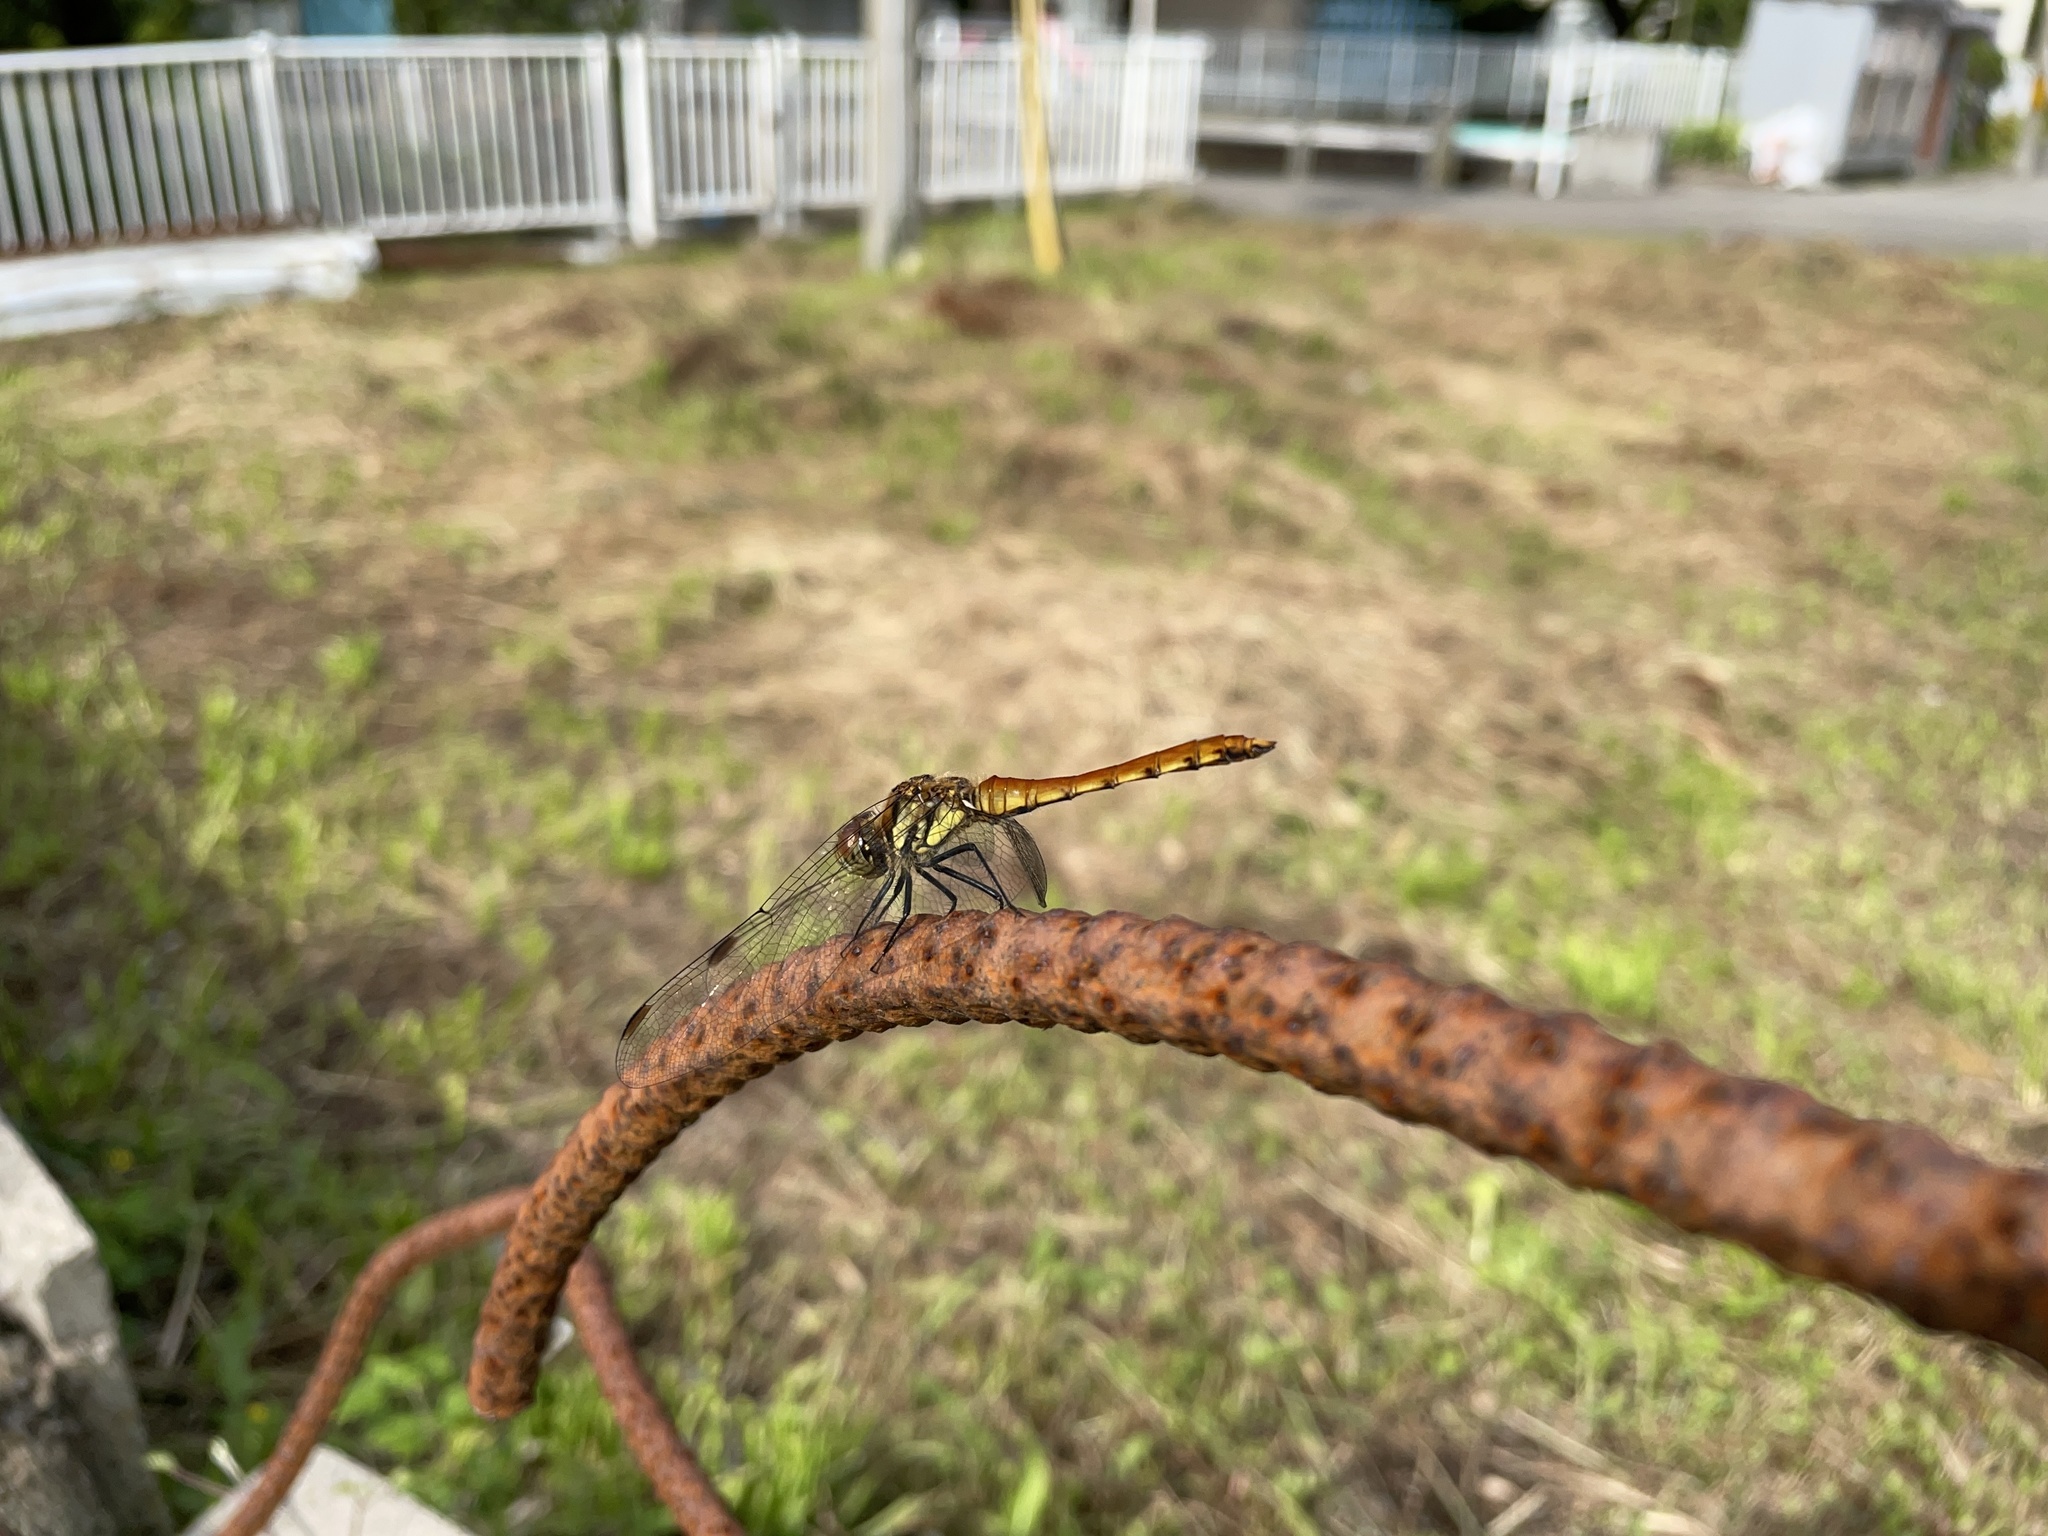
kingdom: Animalia
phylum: Arthropoda
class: Insecta
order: Odonata
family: Libellulidae
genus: Sympetrum
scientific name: Sympetrum frequens
